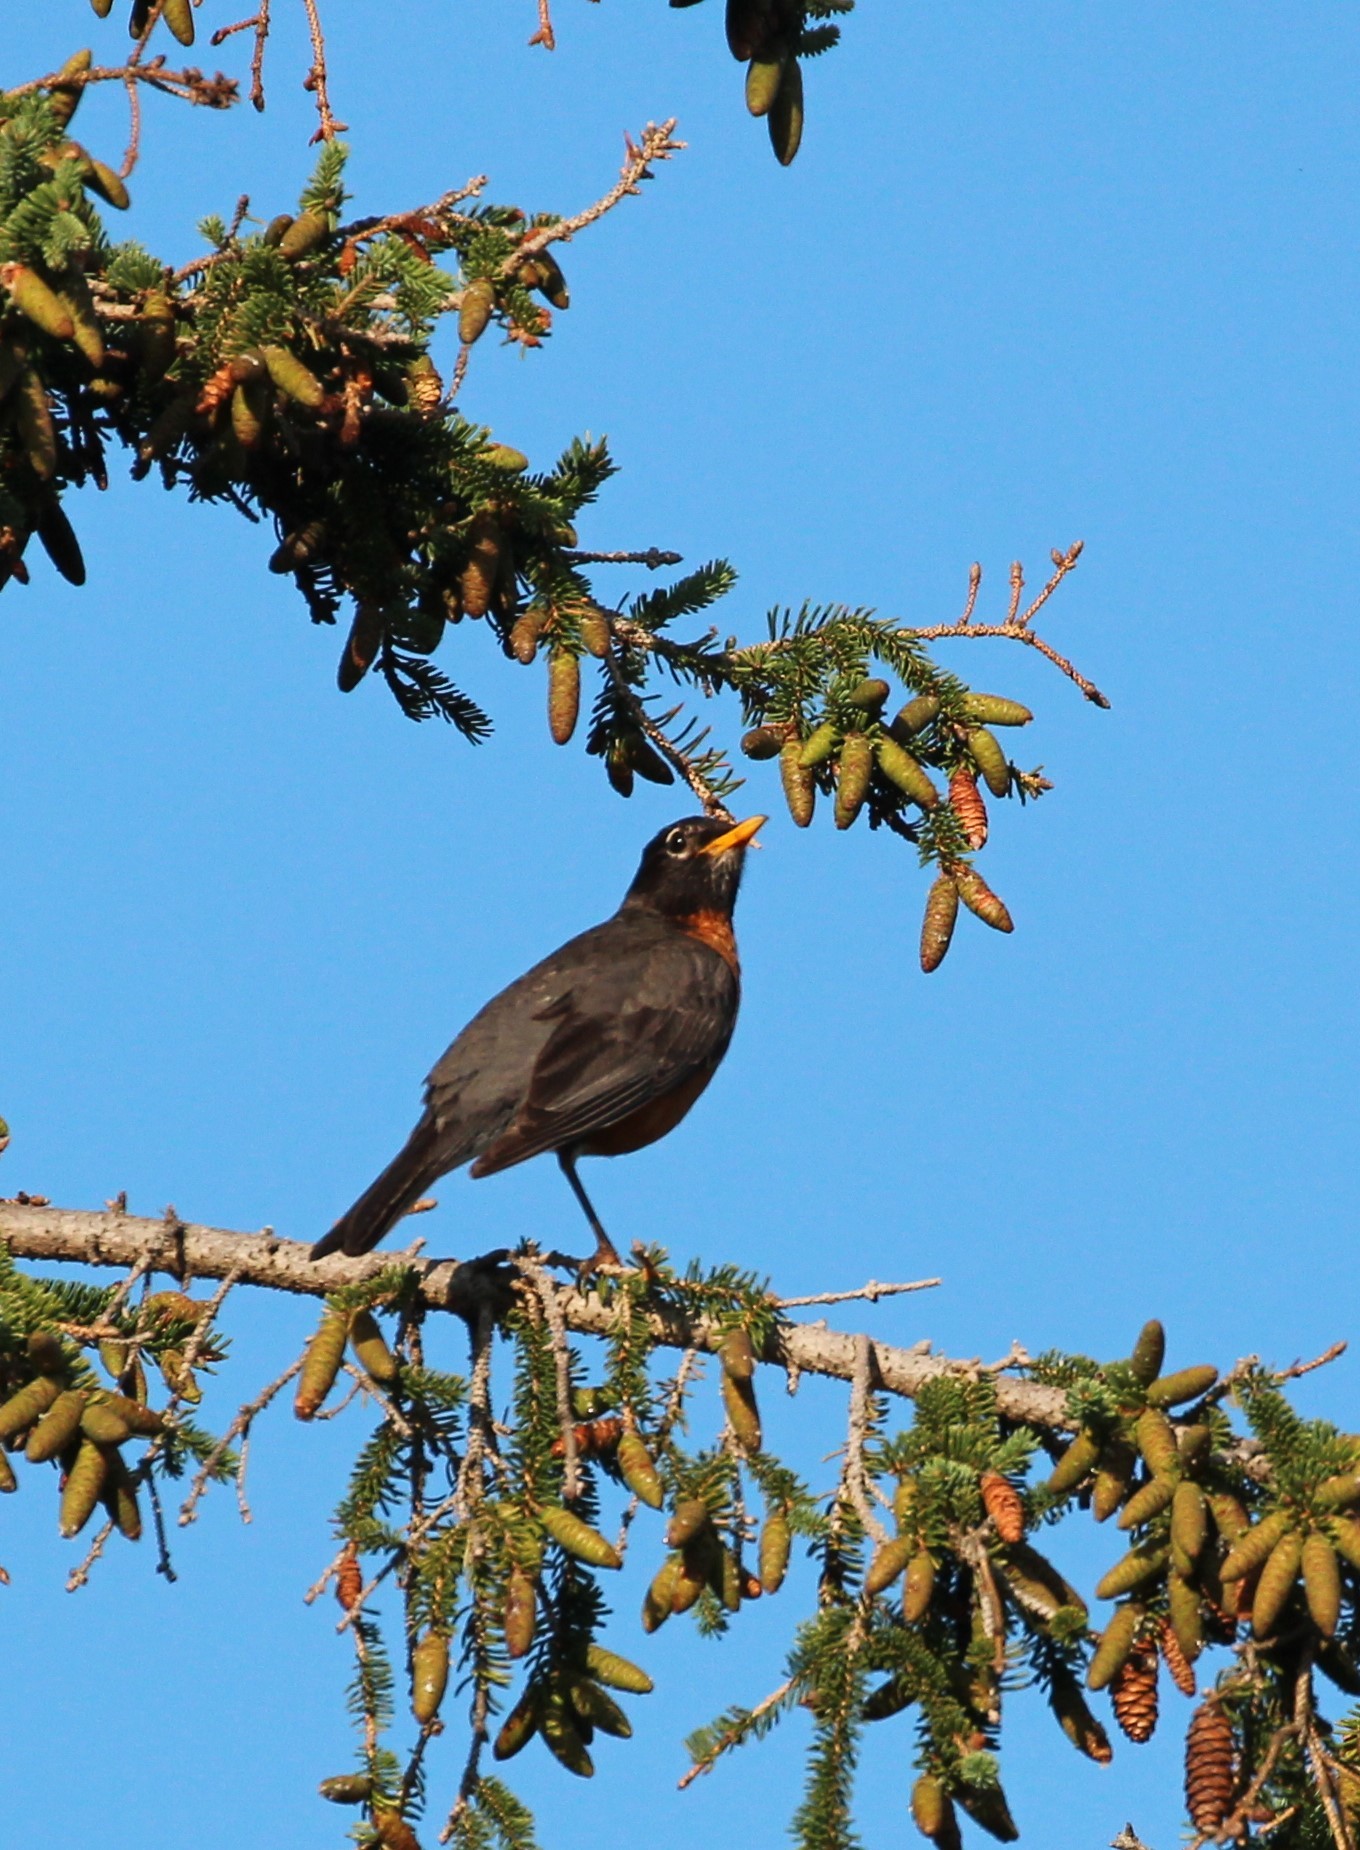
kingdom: Animalia
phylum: Chordata
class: Aves
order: Passeriformes
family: Turdidae
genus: Turdus
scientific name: Turdus migratorius
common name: American robin
